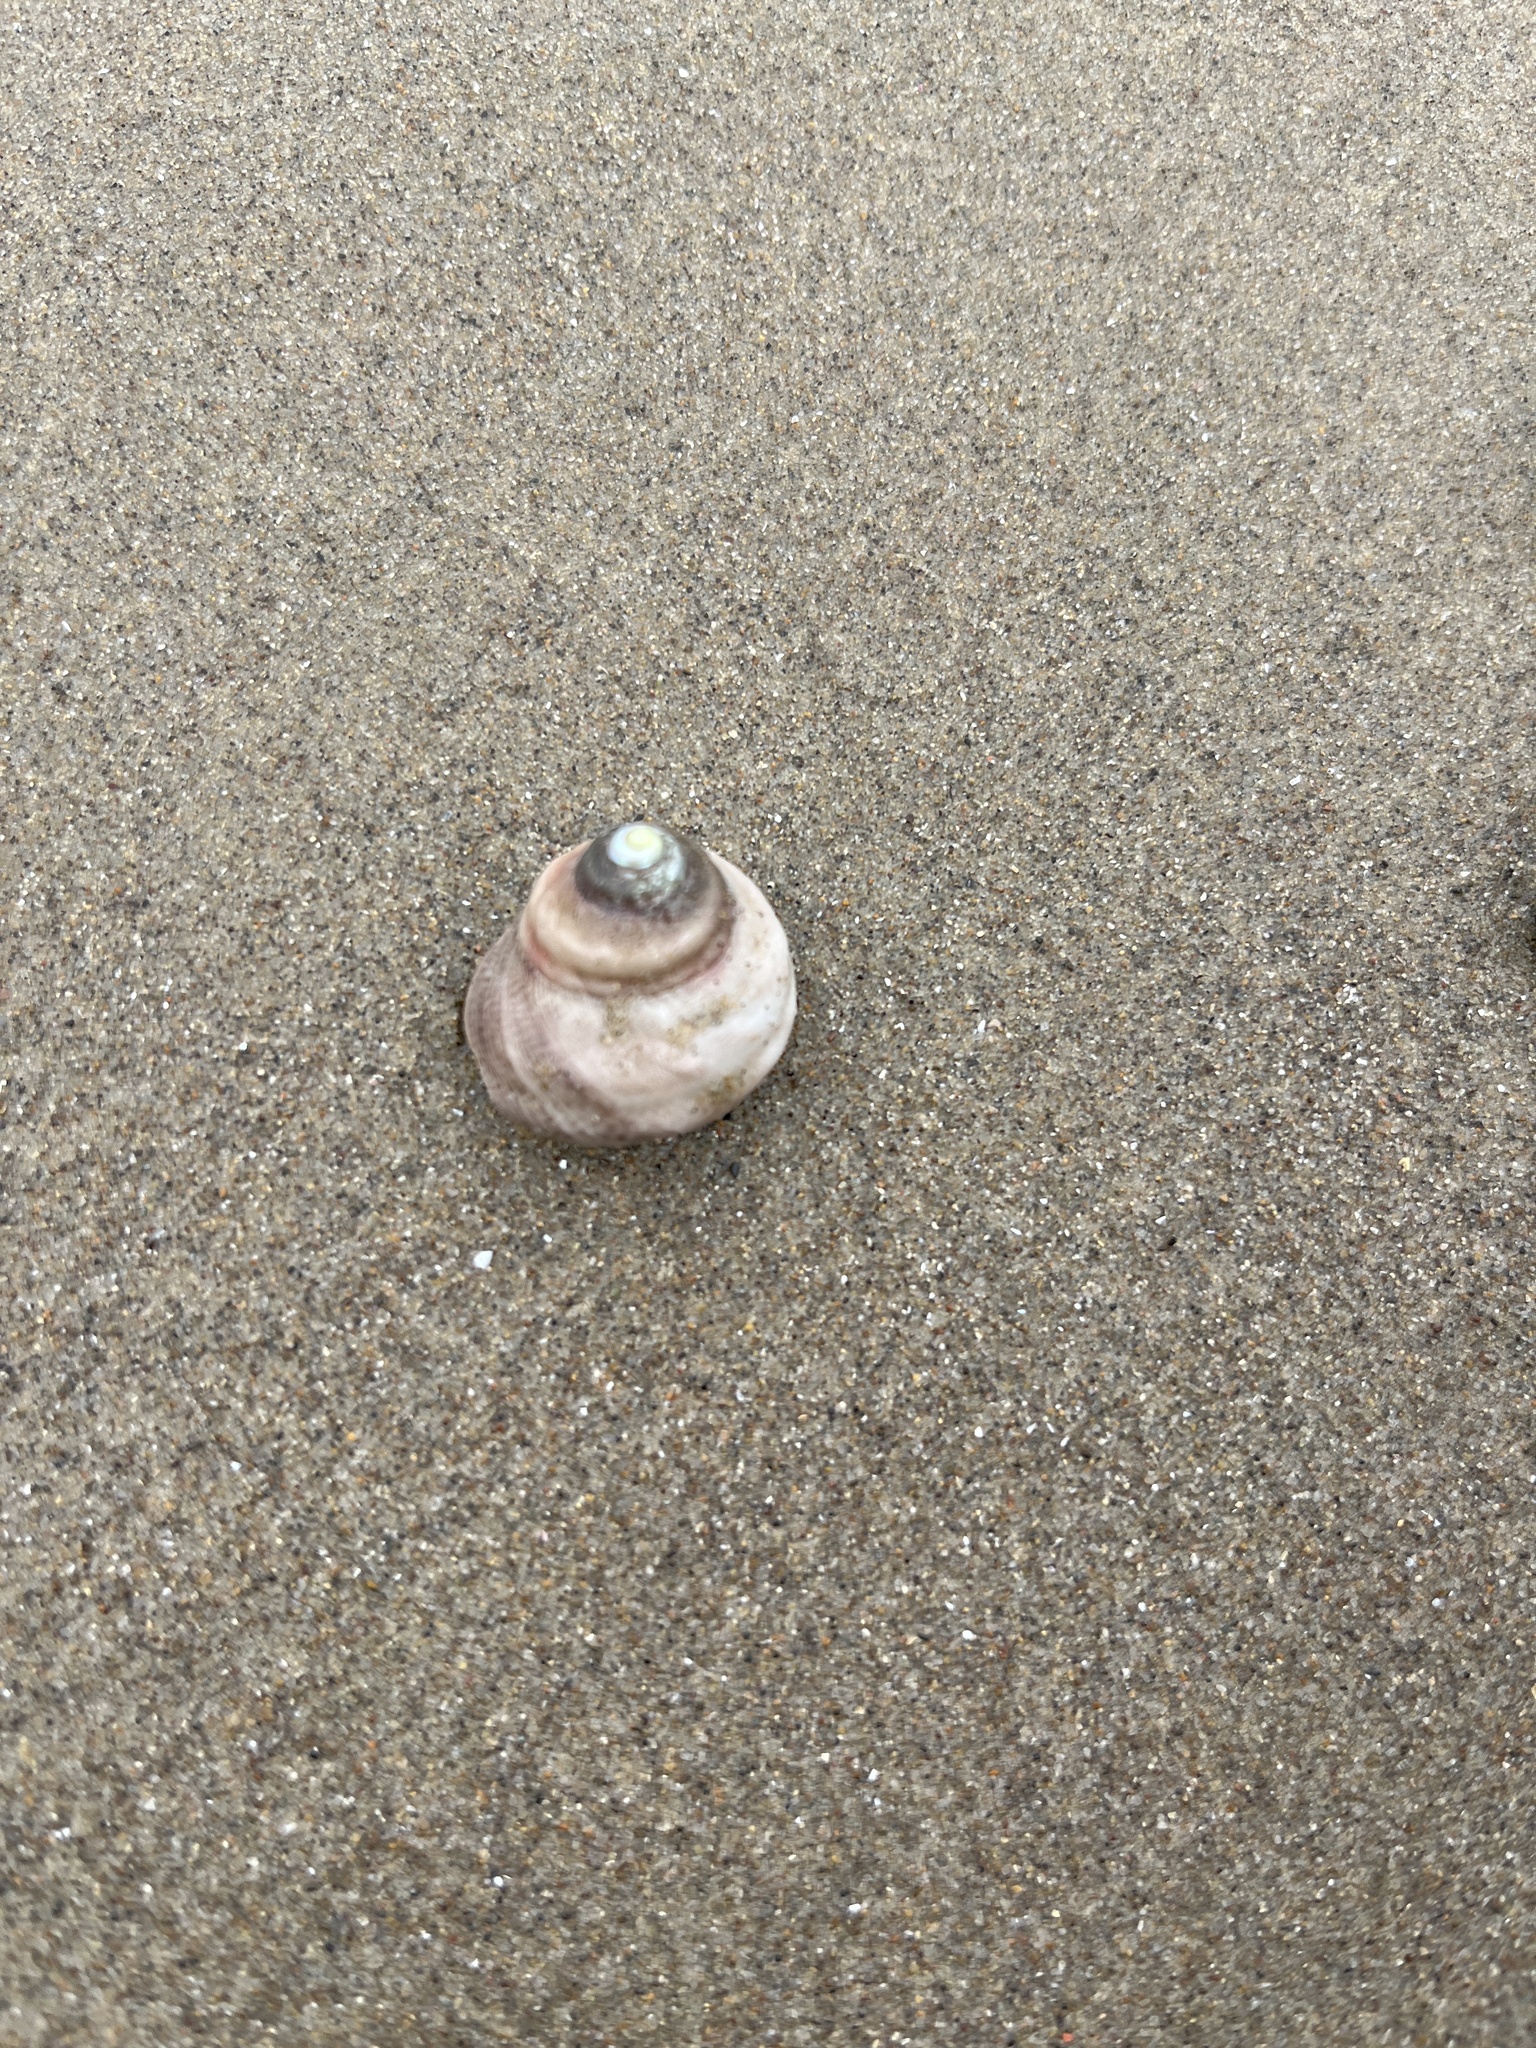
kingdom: Animalia
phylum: Mollusca
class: Gastropoda
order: Trochida
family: Tegulidae
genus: Tegula
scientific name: Tegula aureotincta
